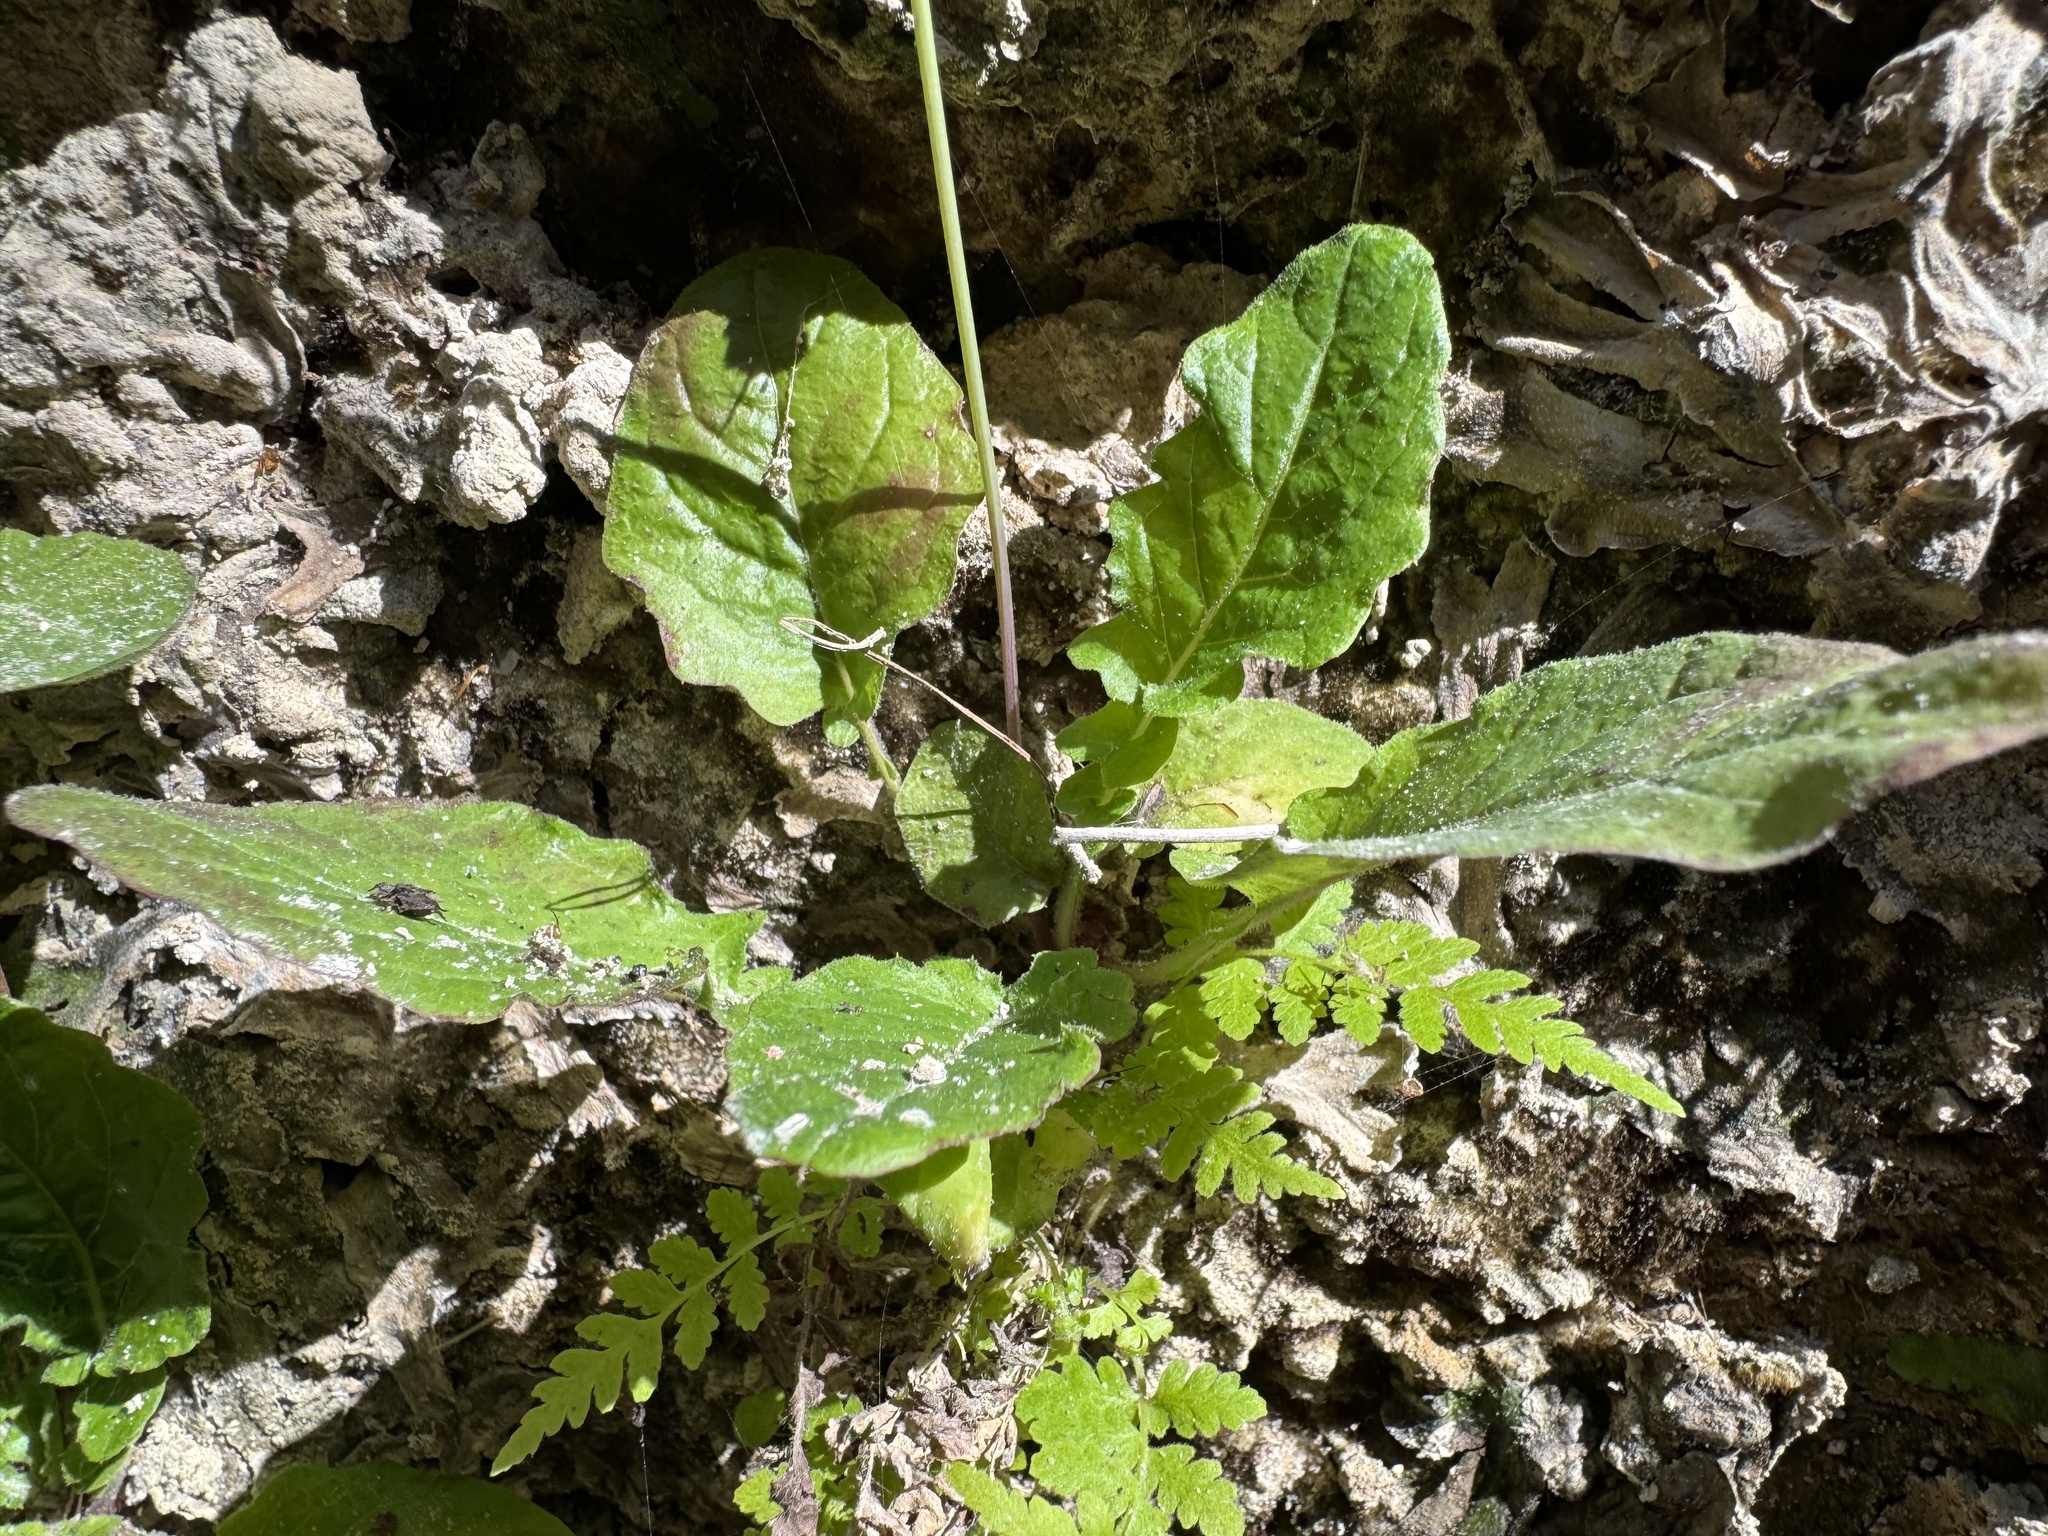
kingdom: Plantae
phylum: Tracheophyta
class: Magnoliopsida
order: Asterales
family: Asteraceae
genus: Youngia
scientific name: Youngia japonica
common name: Oriental false hawksbeard
